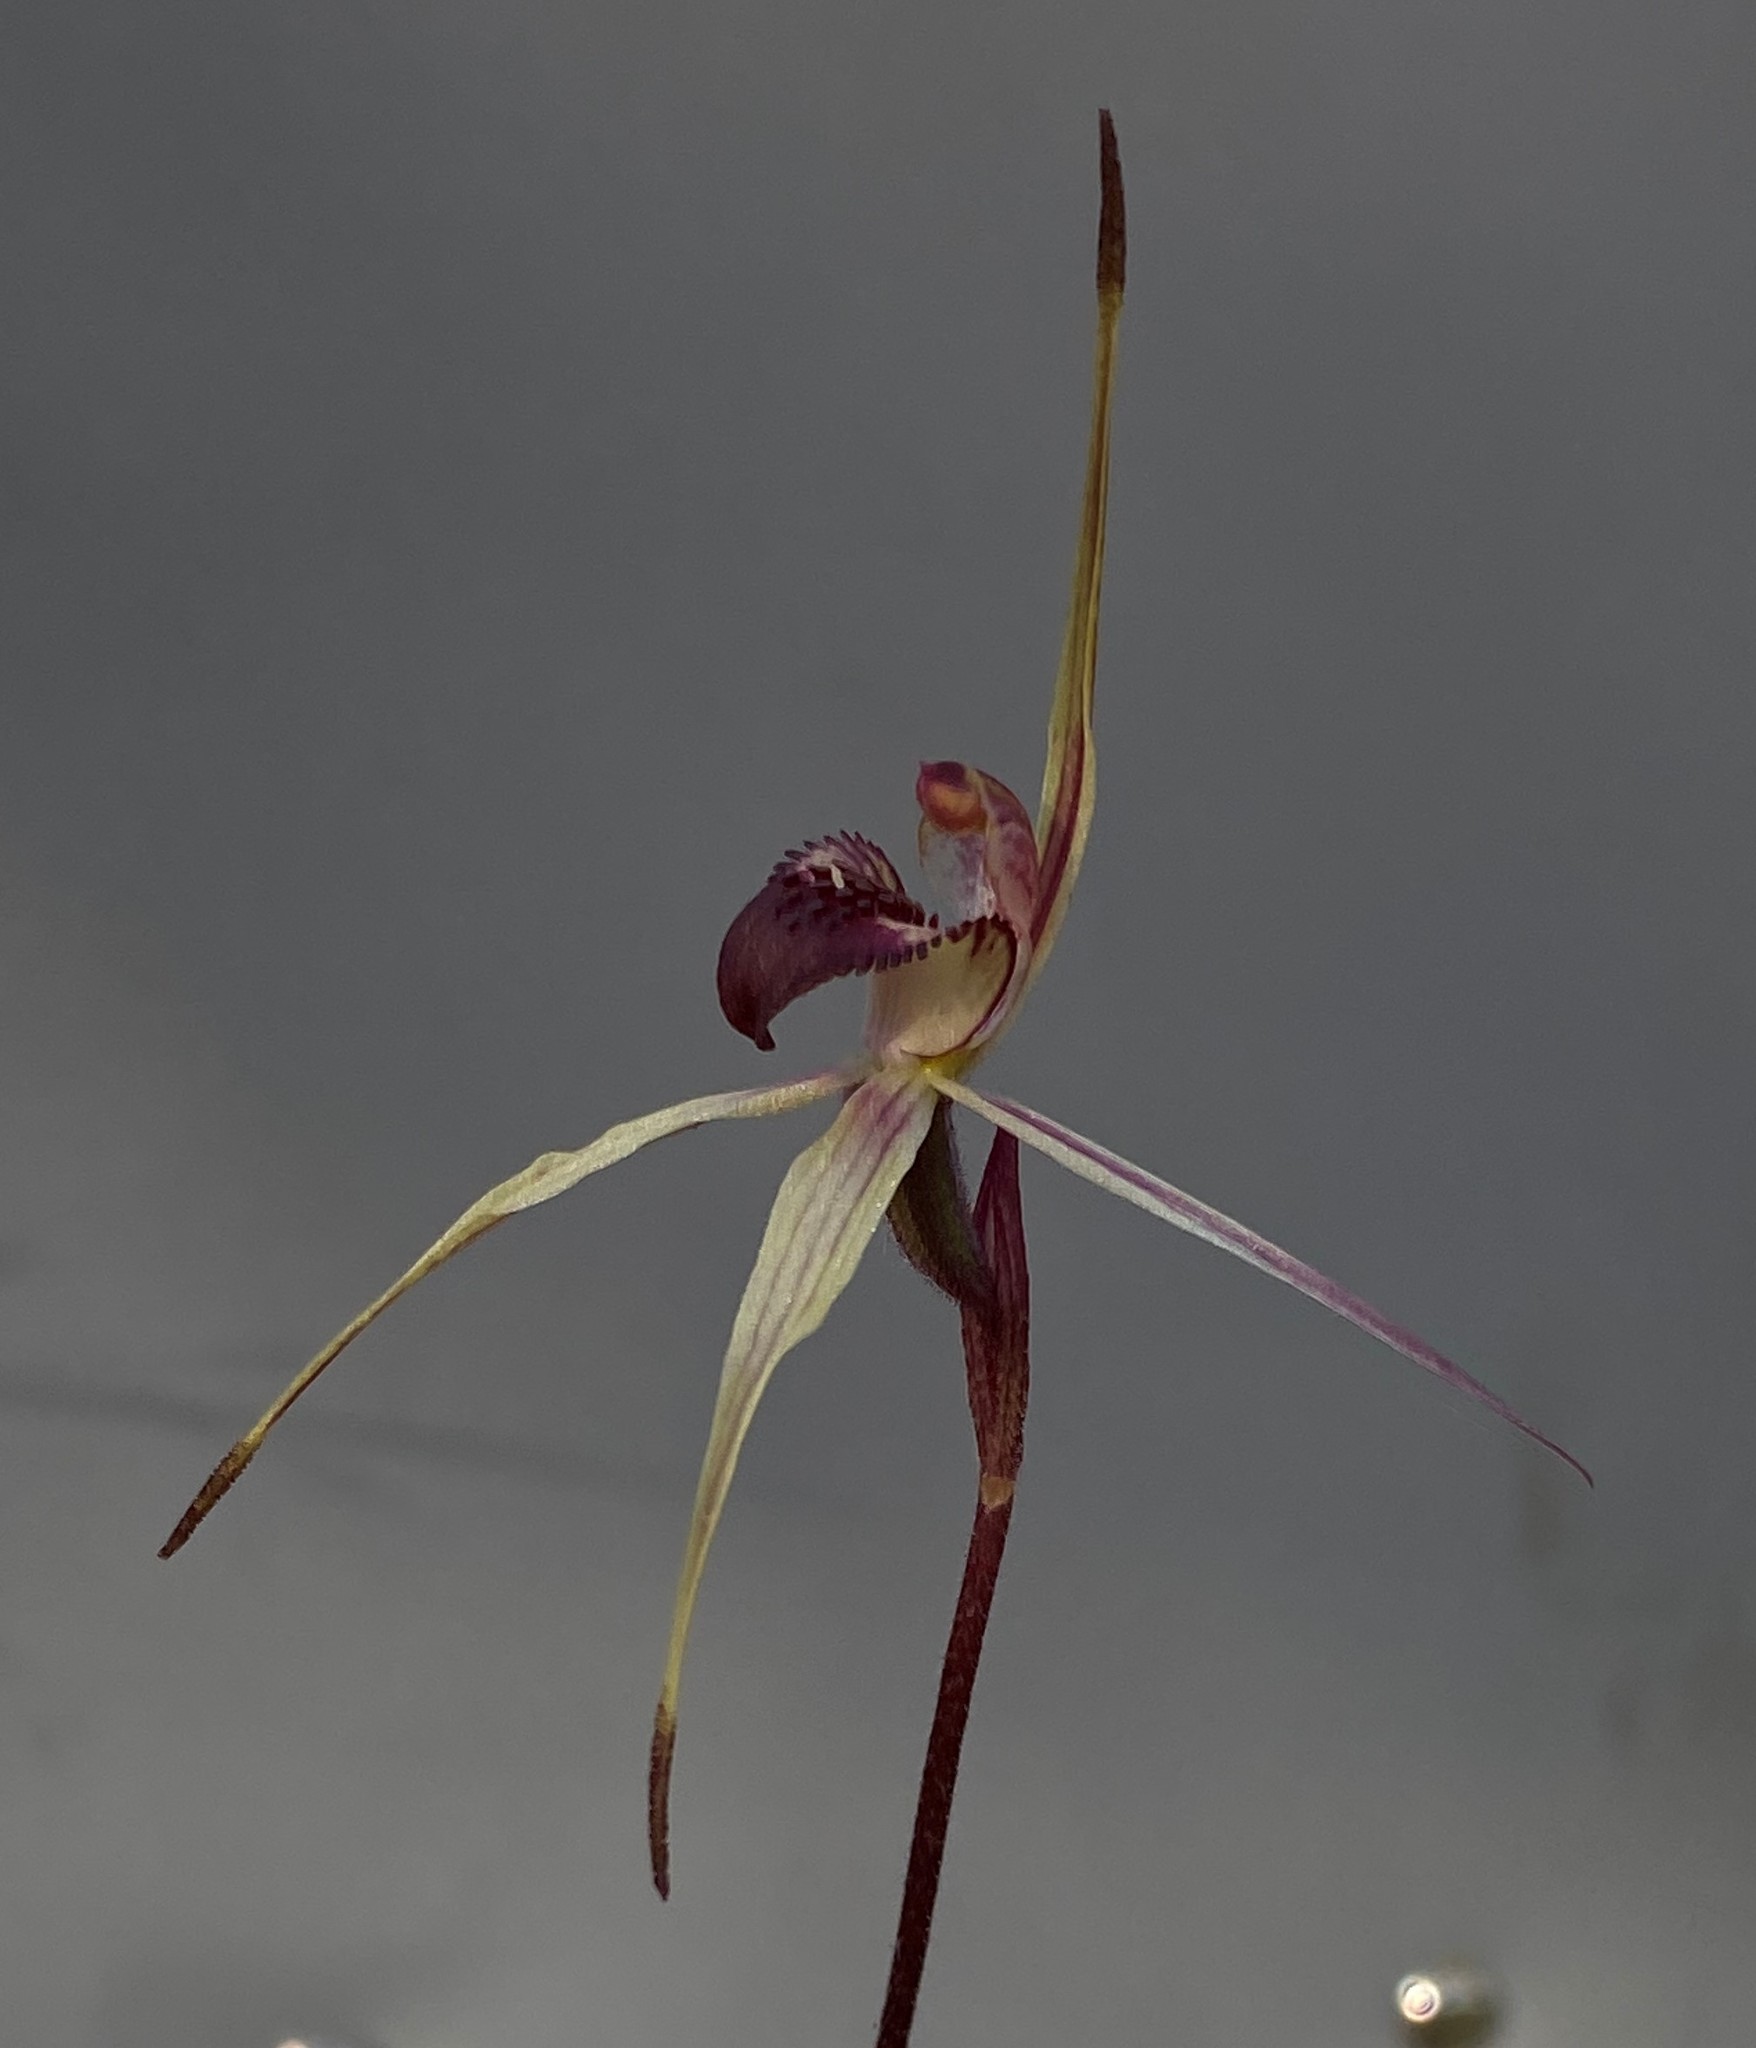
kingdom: Plantae
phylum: Tracheophyta
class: Liliopsida
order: Asparagales
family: Orchidaceae
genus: Caladenia
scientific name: Caladenia reticulata
